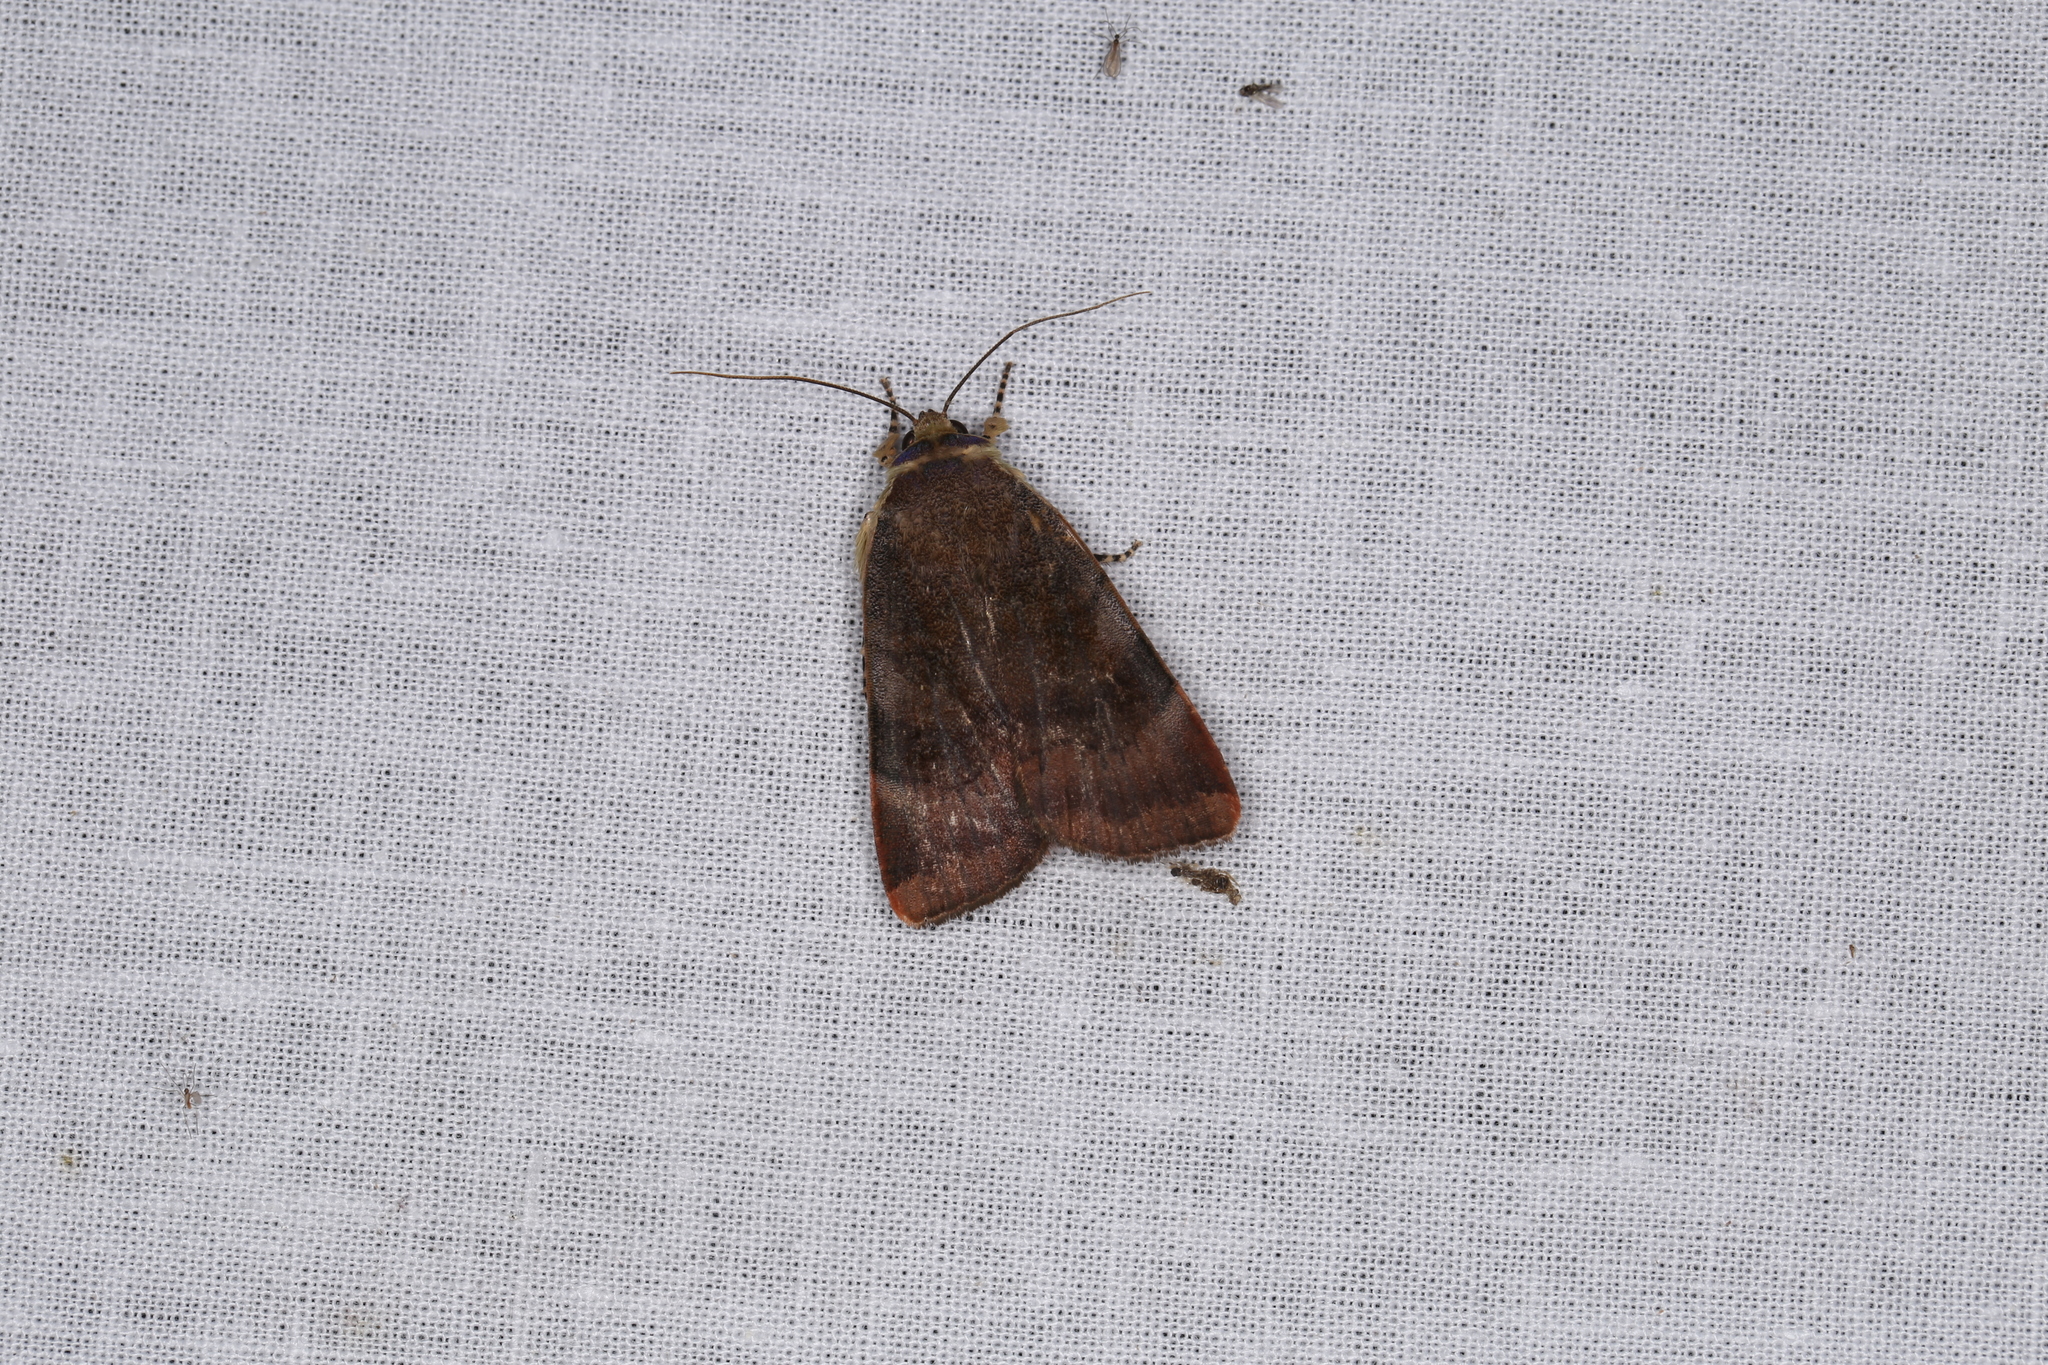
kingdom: Animalia
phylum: Arthropoda
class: Insecta
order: Lepidoptera
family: Noctuidae
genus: Noctua
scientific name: Noctua janthe
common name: Lesser broad-bordered yellow underwing
